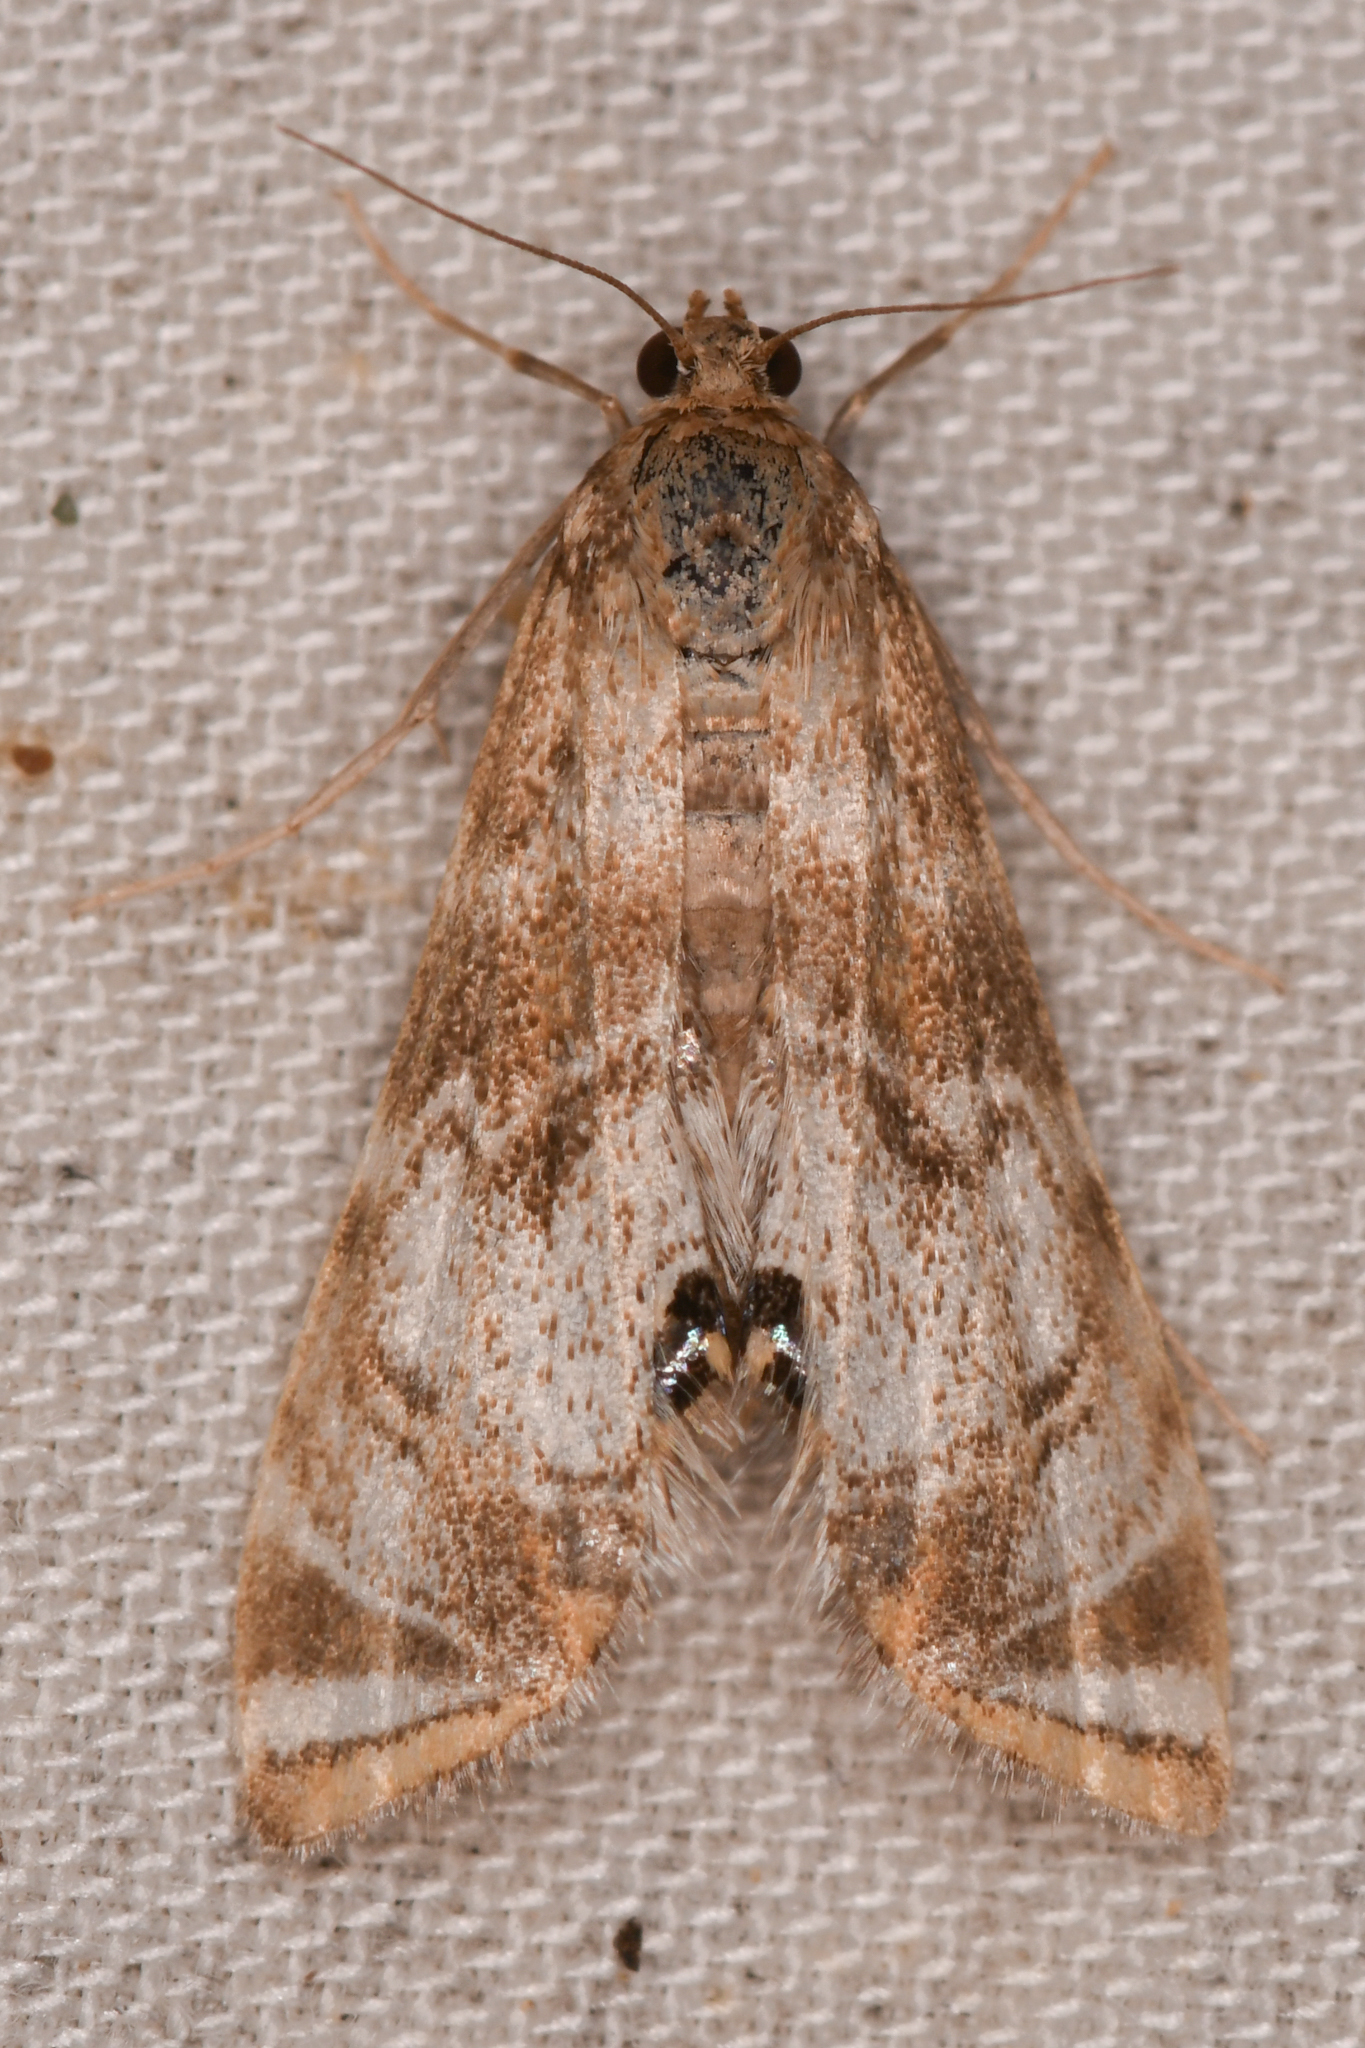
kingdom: Animalia
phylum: Arthropoda
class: Insecta
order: Lepidoptera
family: Crambidae
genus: Petrophila
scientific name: Petrophila confusalis
